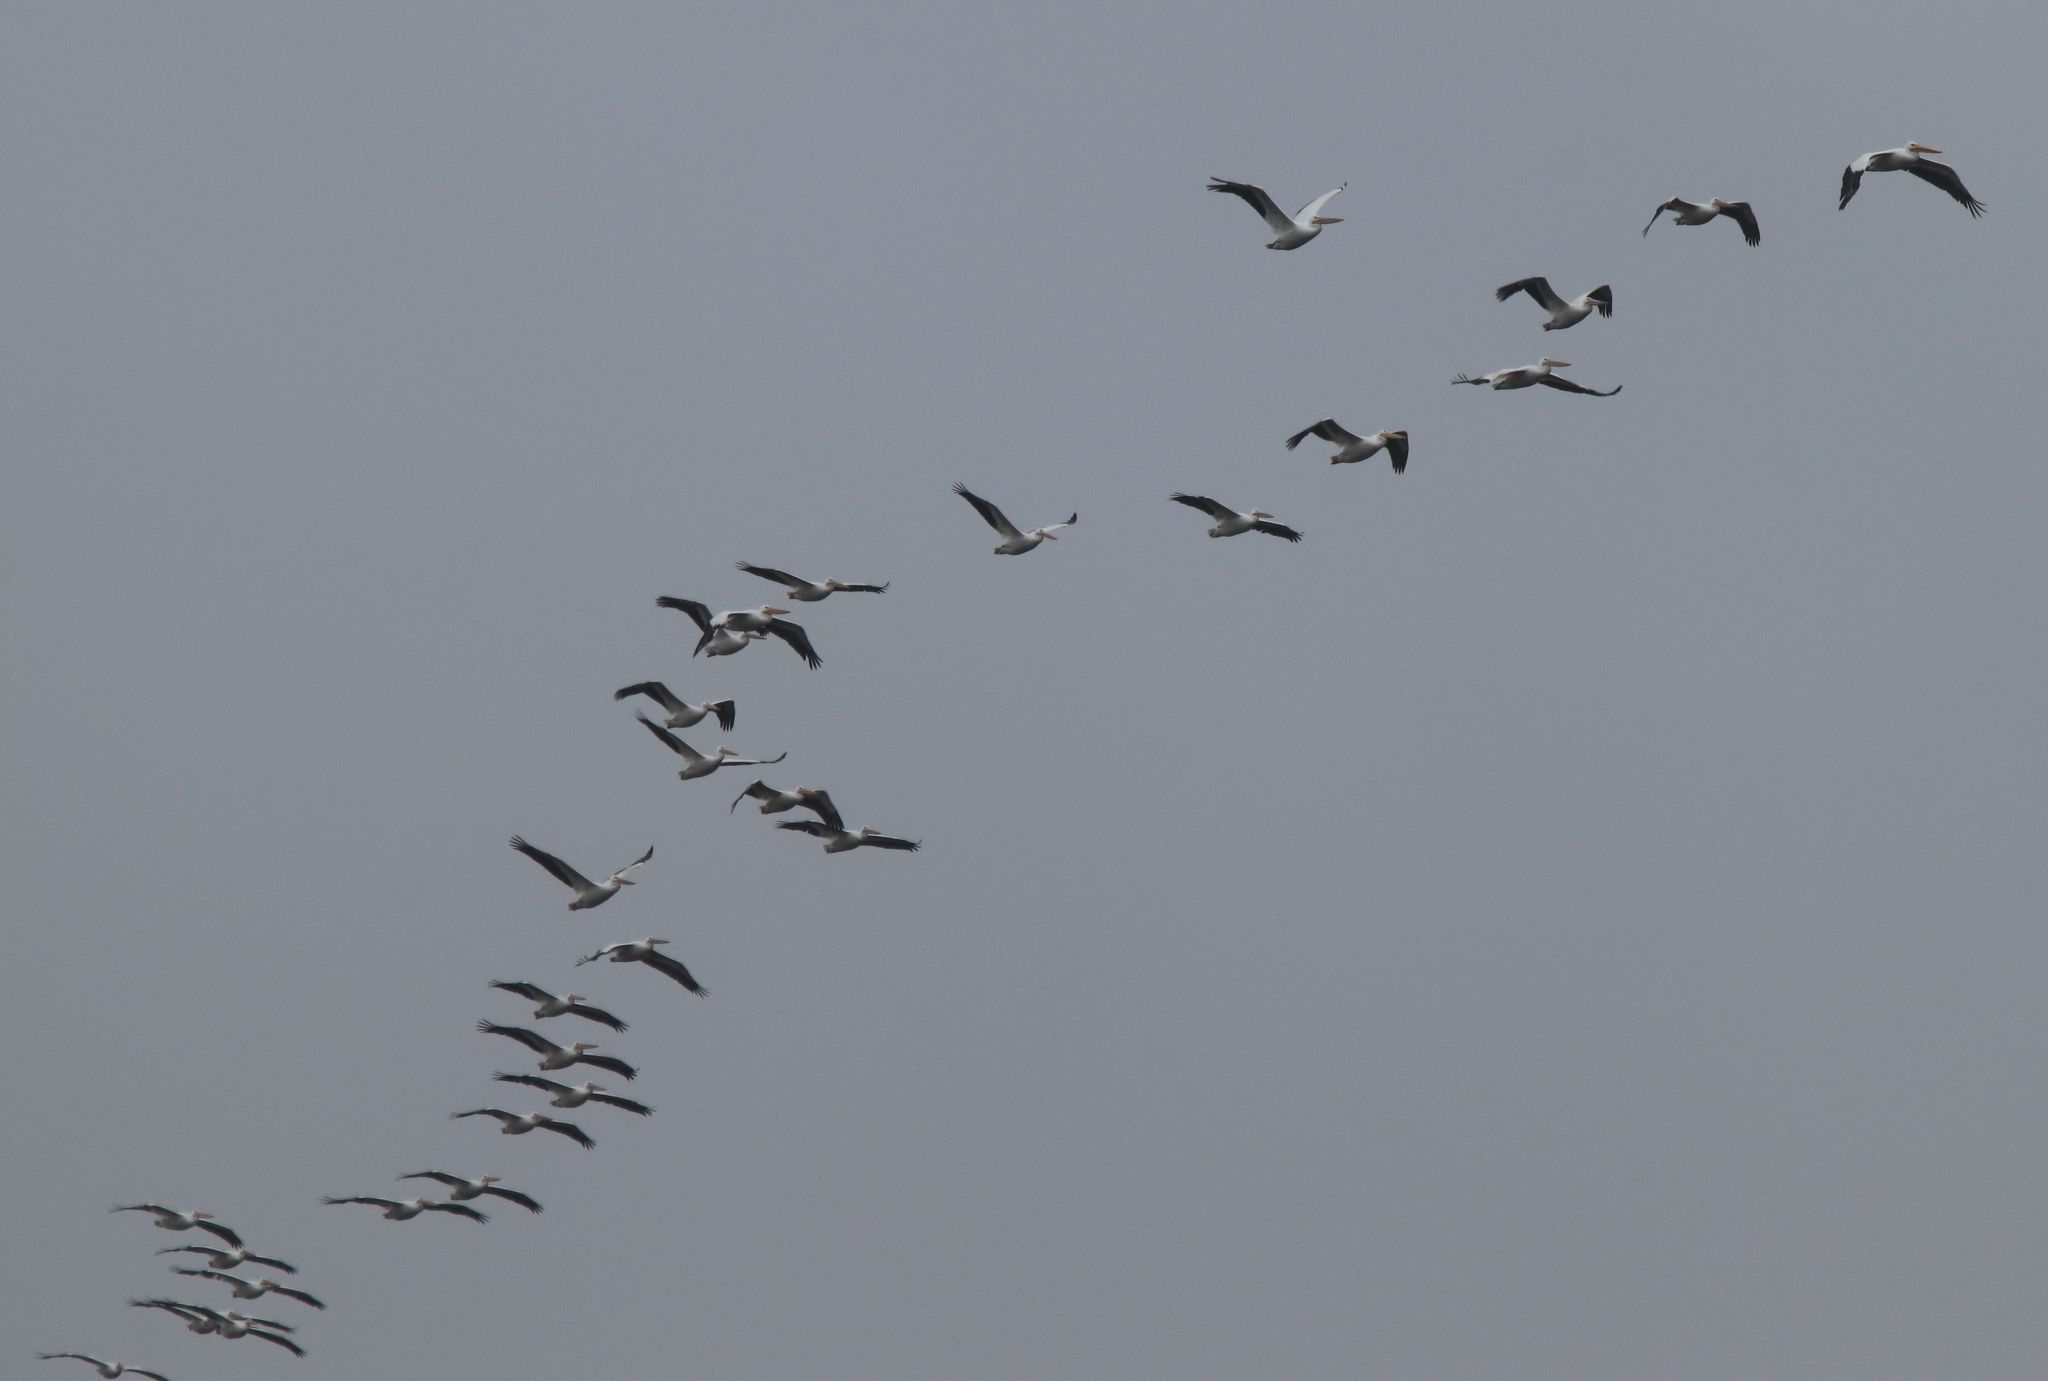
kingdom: Animalia
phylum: Chordata
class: Aves
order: Pelecaniformes
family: Pelecanidae
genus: Pelecanus
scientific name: Pelecanus erythrorhynchos
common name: American white pelican
